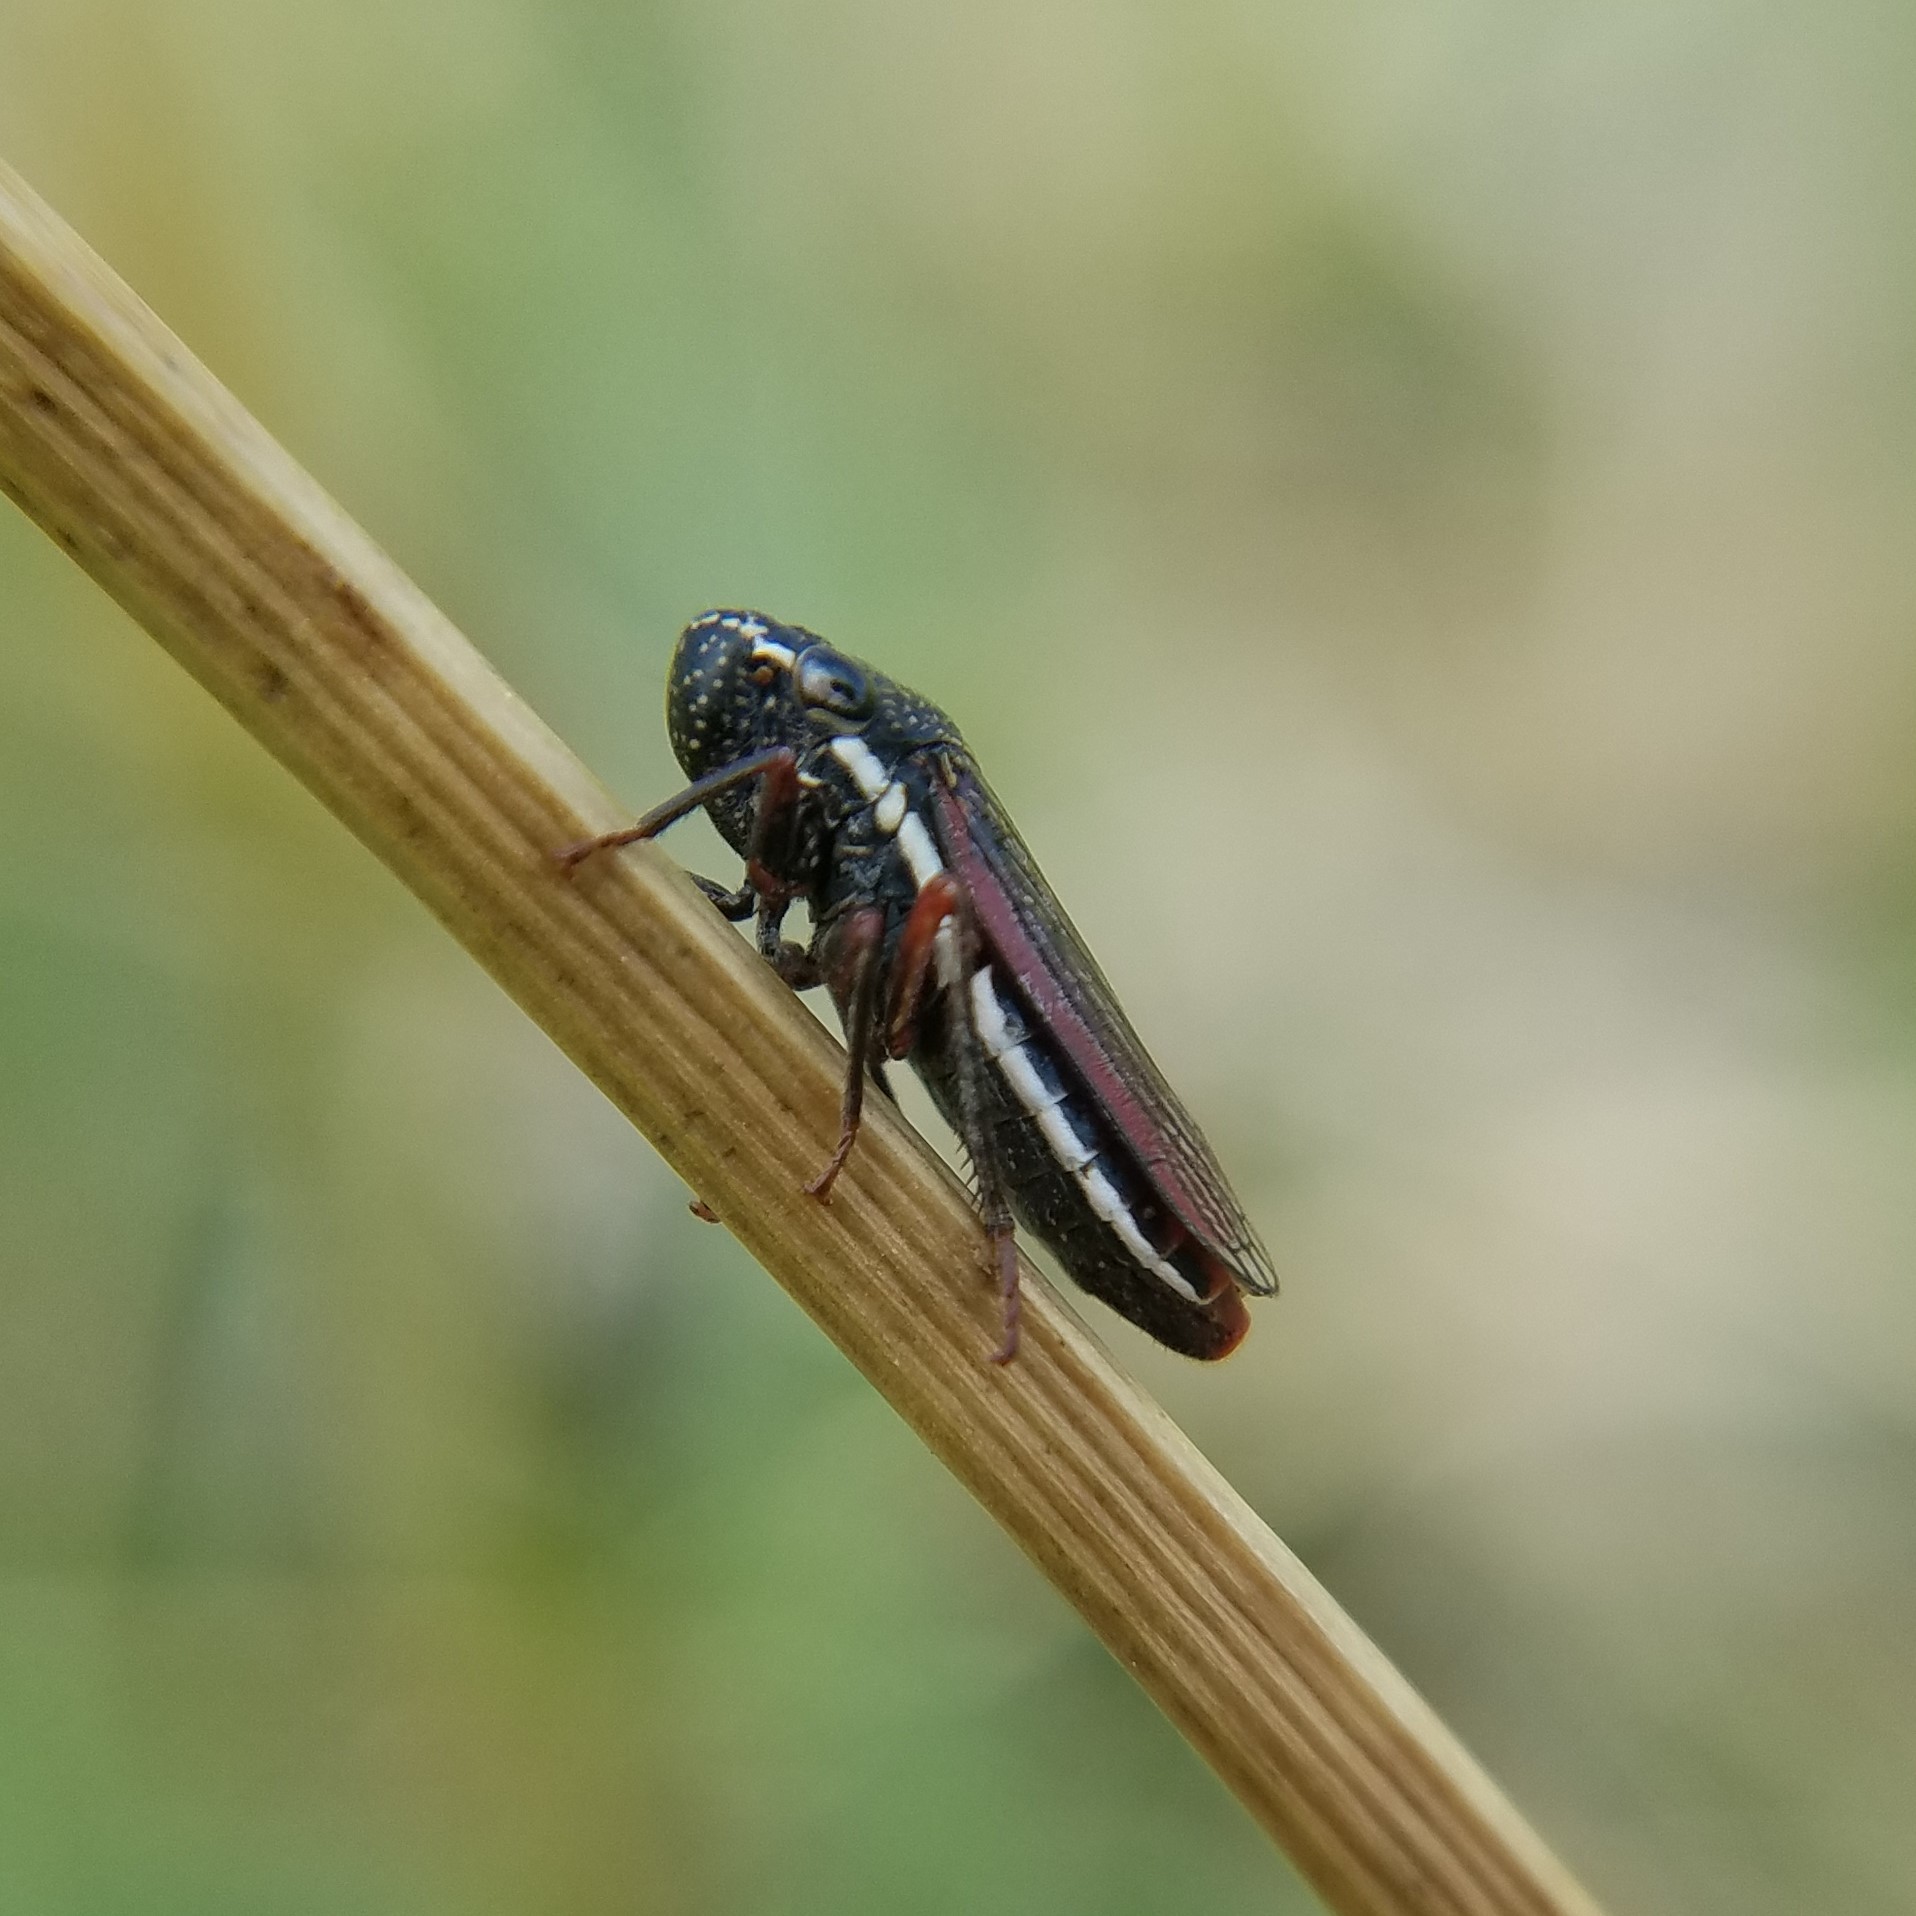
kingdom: Animalia
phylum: Arthropoda
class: Insecta
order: Hemiptera
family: Cicadellidae
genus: Cuerna
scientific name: Cuerna costalis
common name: Lateral-lined sharpshooter
